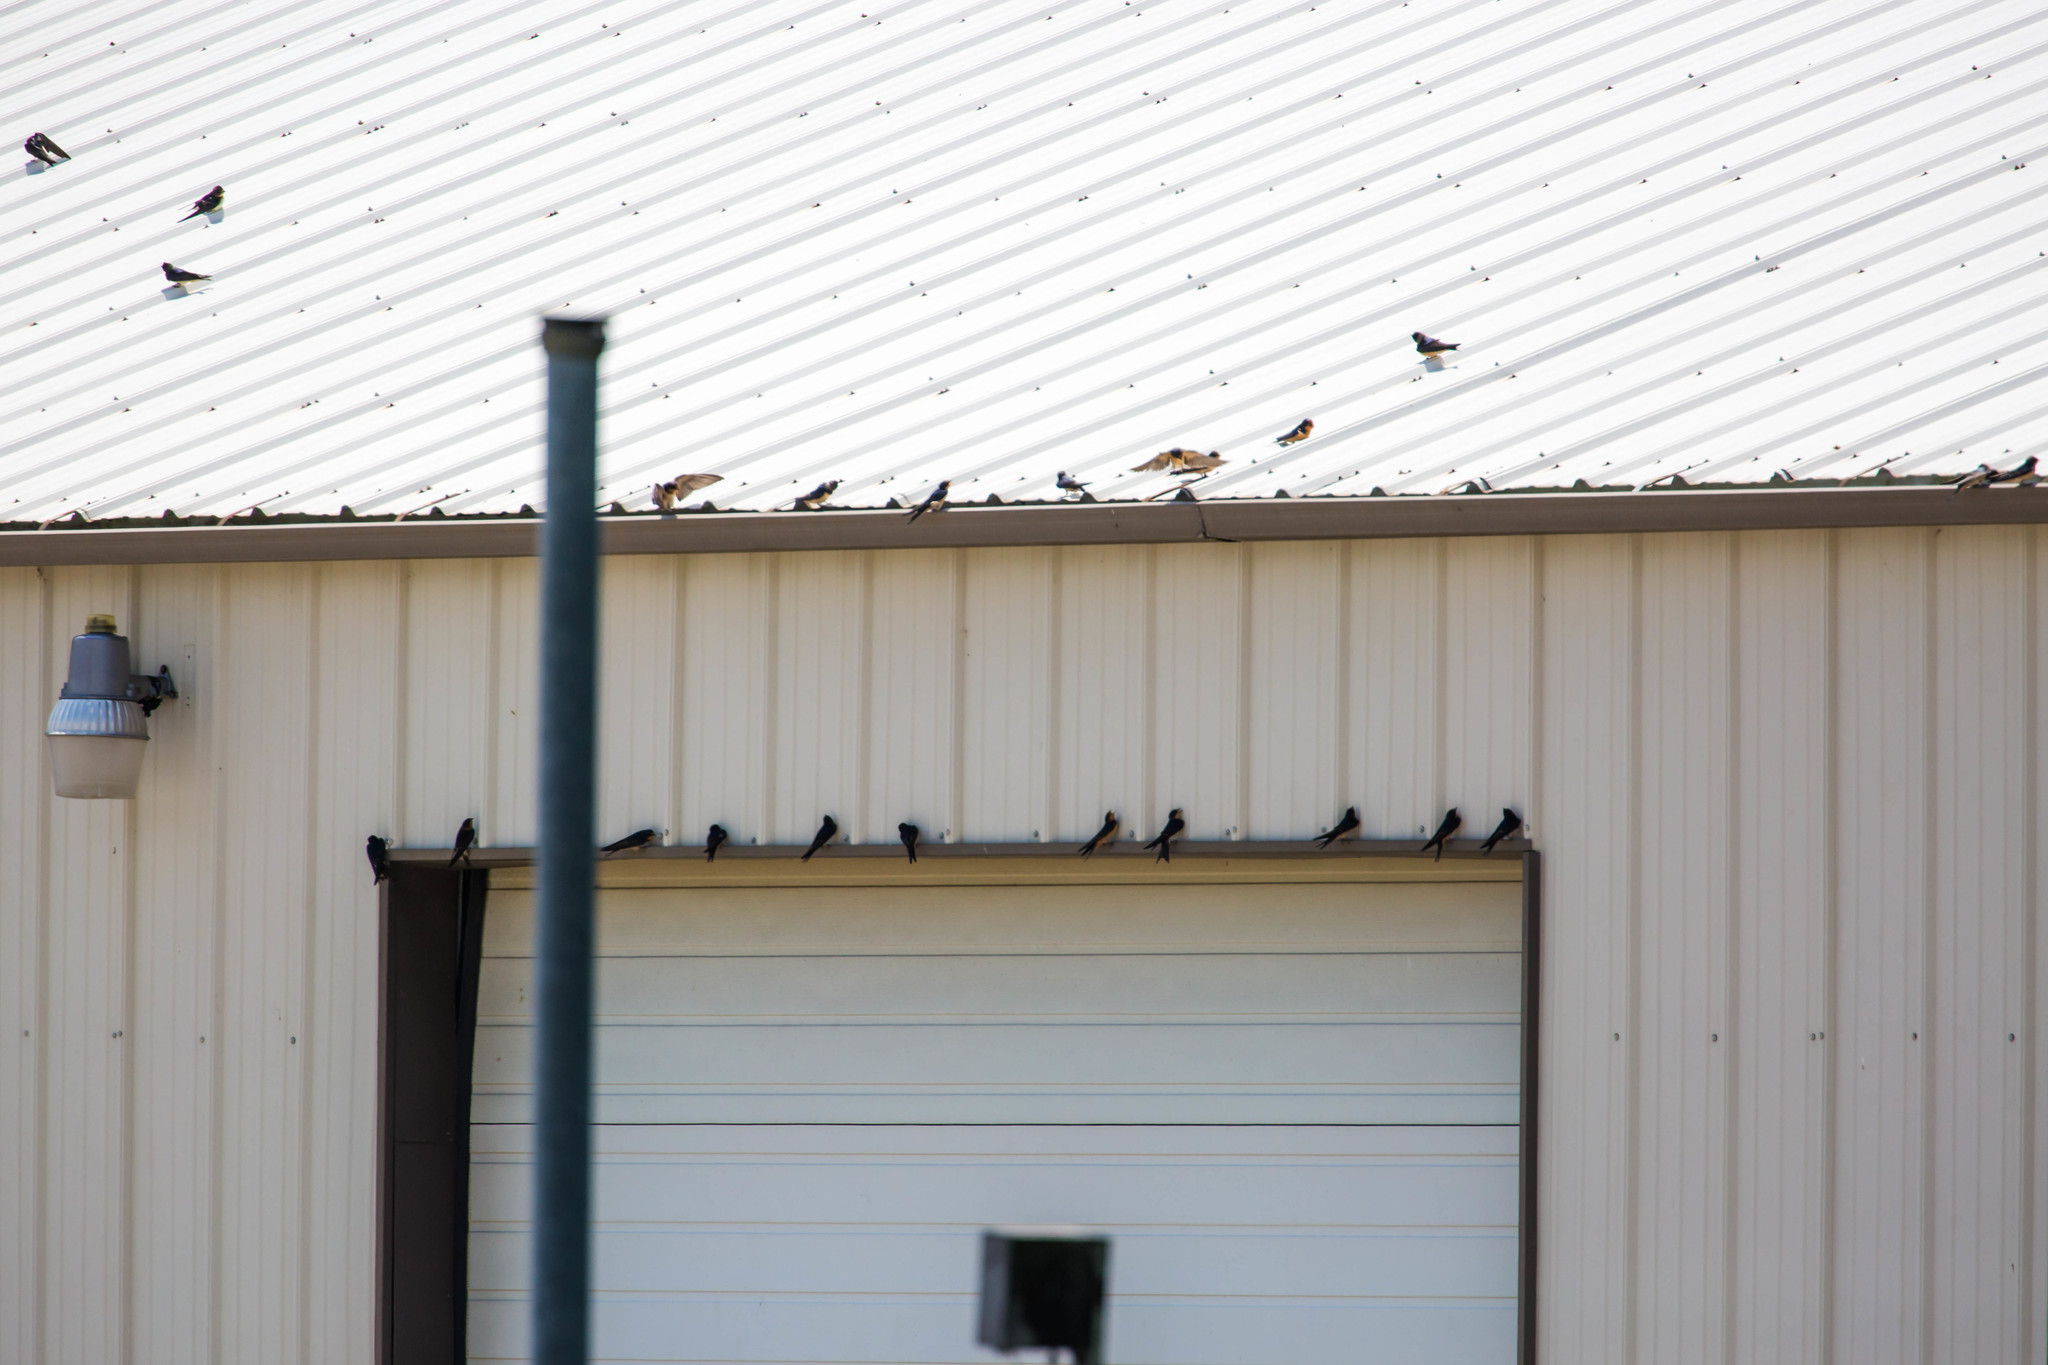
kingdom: Animalia
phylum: Chordata
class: Aves
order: Passeriformes
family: Hirundinidae
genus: Hirundo
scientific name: Hirundo rustica
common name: Barn swallow
